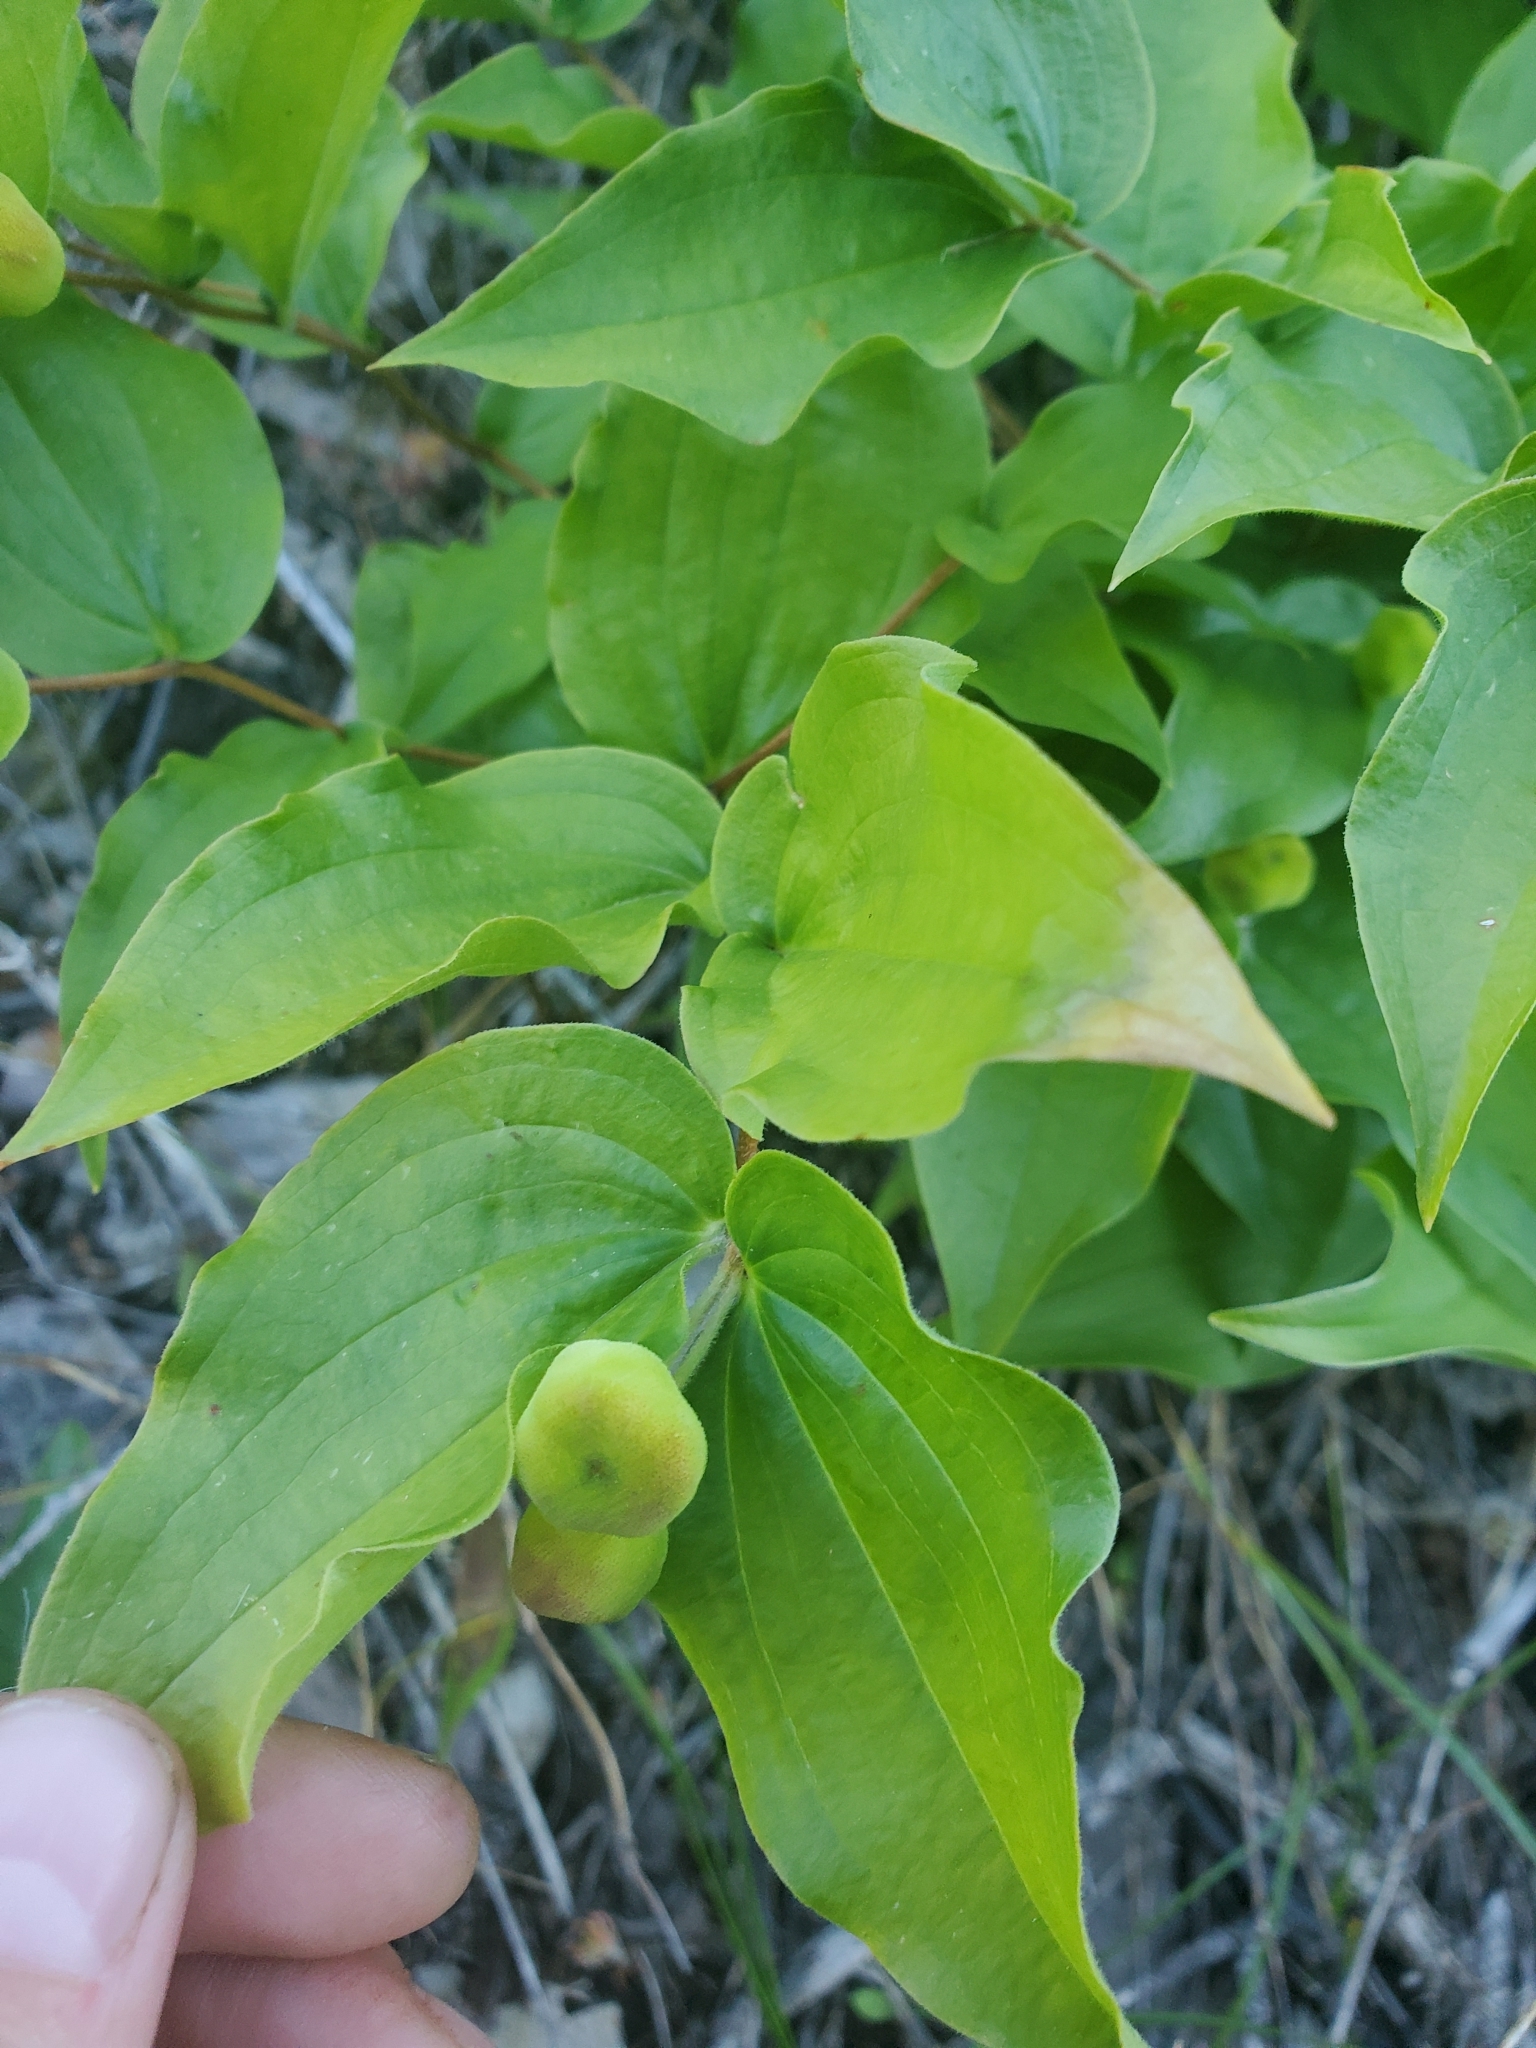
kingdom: Plantae
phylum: Tracheophyta
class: Liliopsida
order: Liliales
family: Liliaceae
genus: Prosartes
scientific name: Prosartes trachycarpa
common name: Rough-fruit fairy-bells
